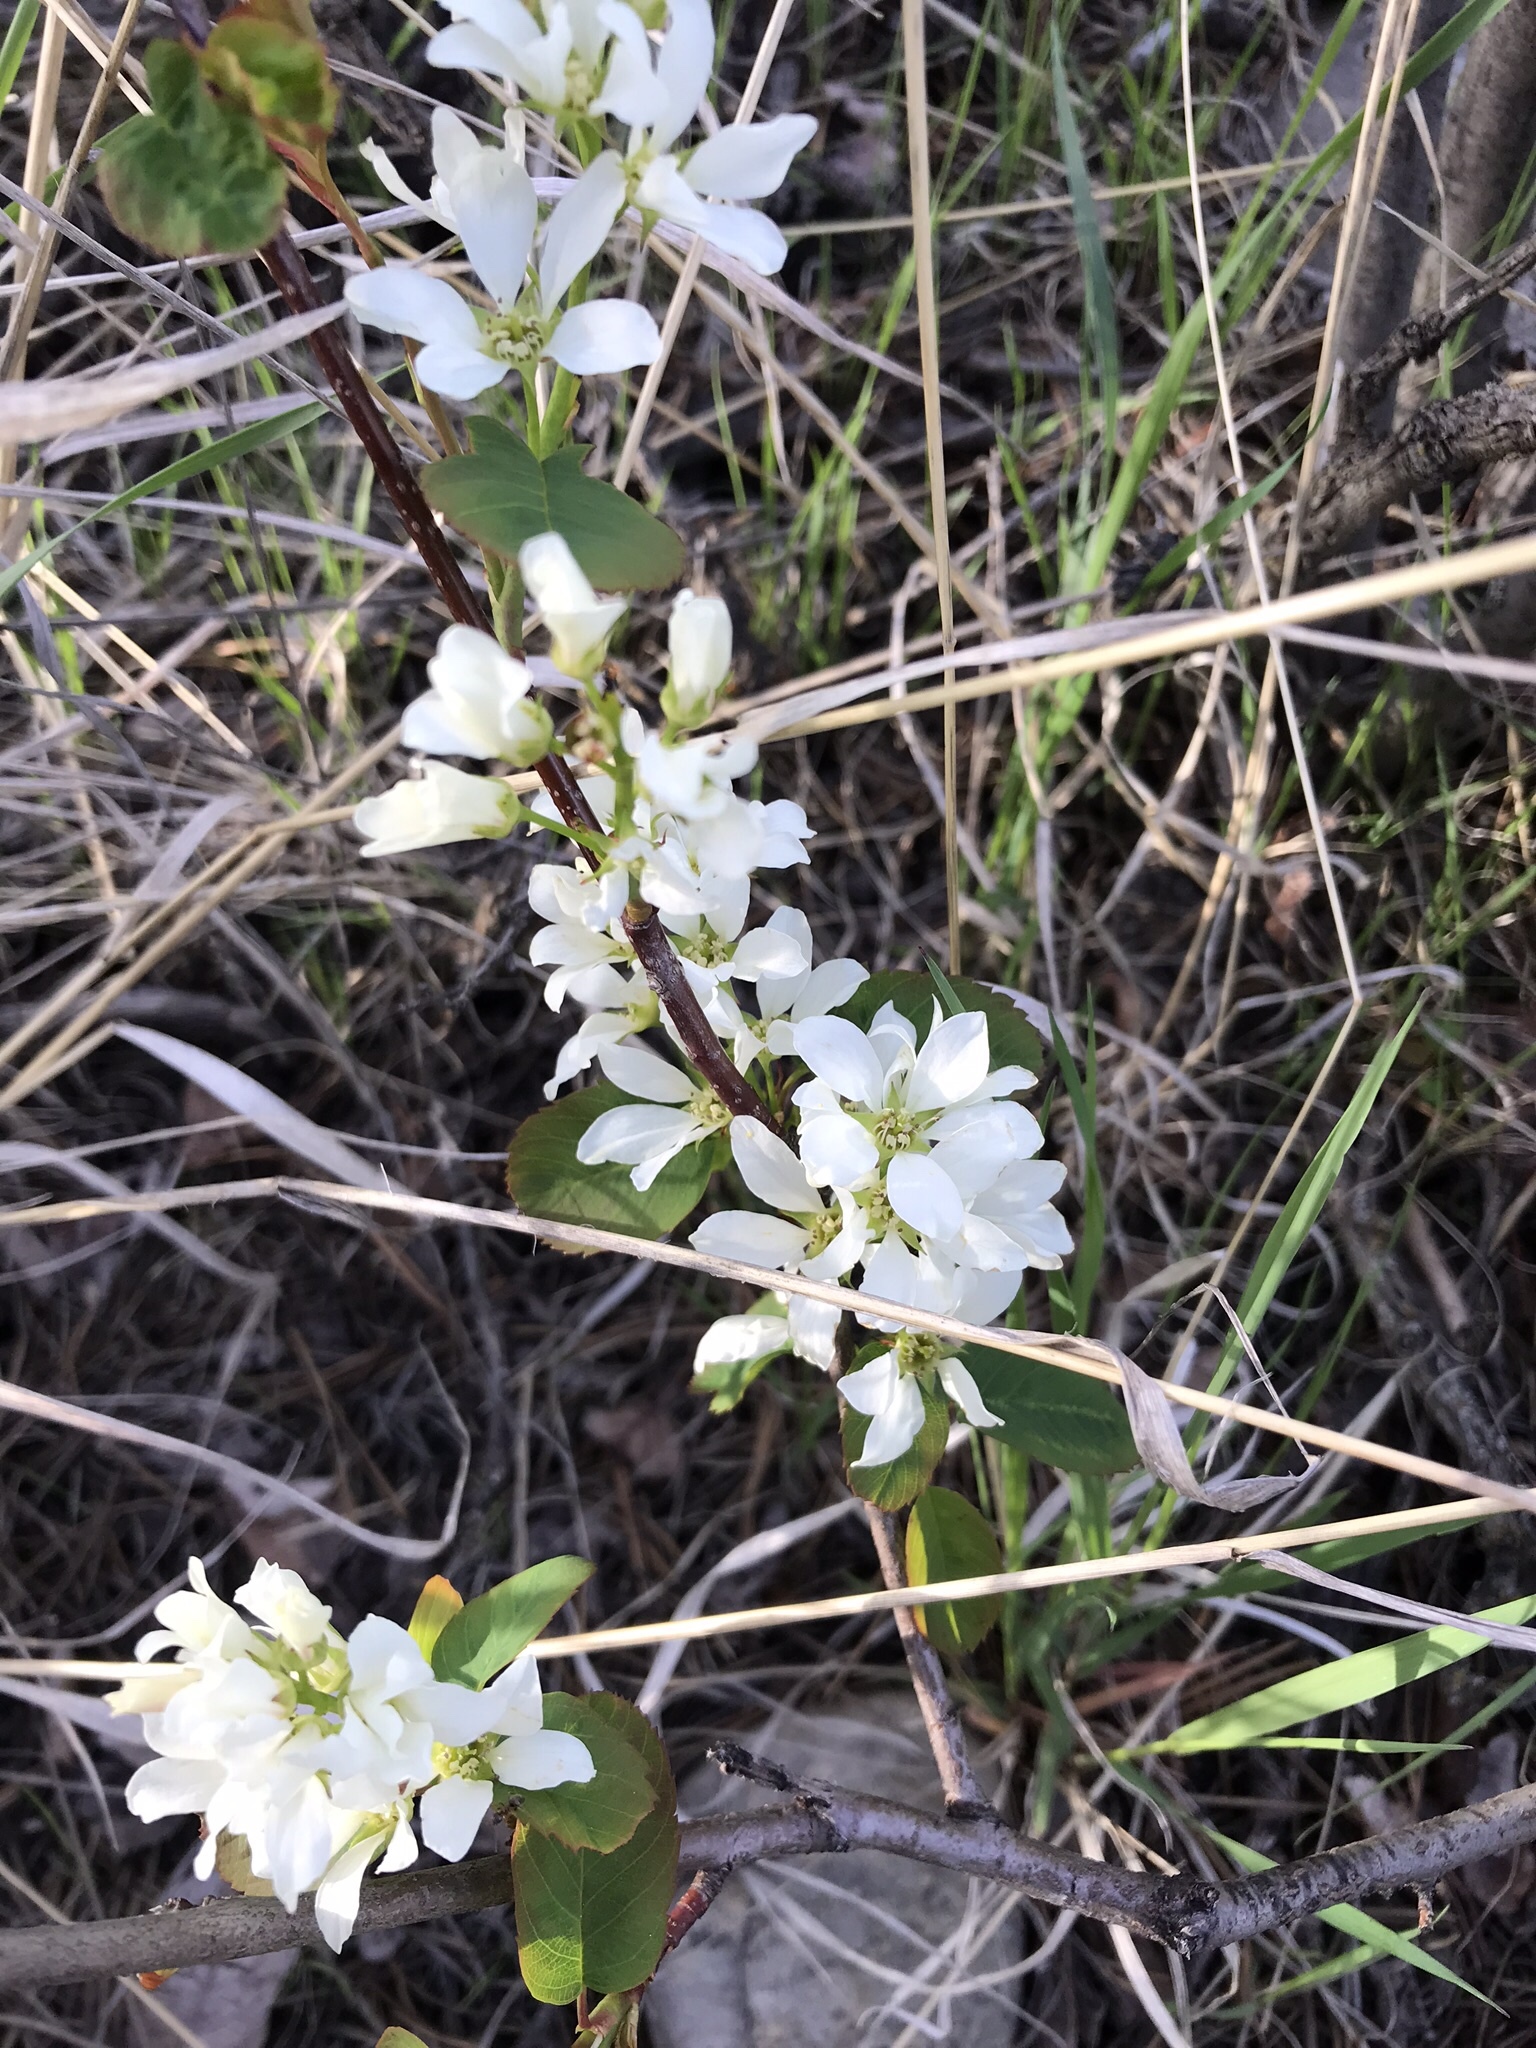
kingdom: Plantae
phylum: Tracheophyta
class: Magnoliopsida
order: Rosales
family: Rosaceae
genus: Amelanchier
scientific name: Amelanchier alnifolia
